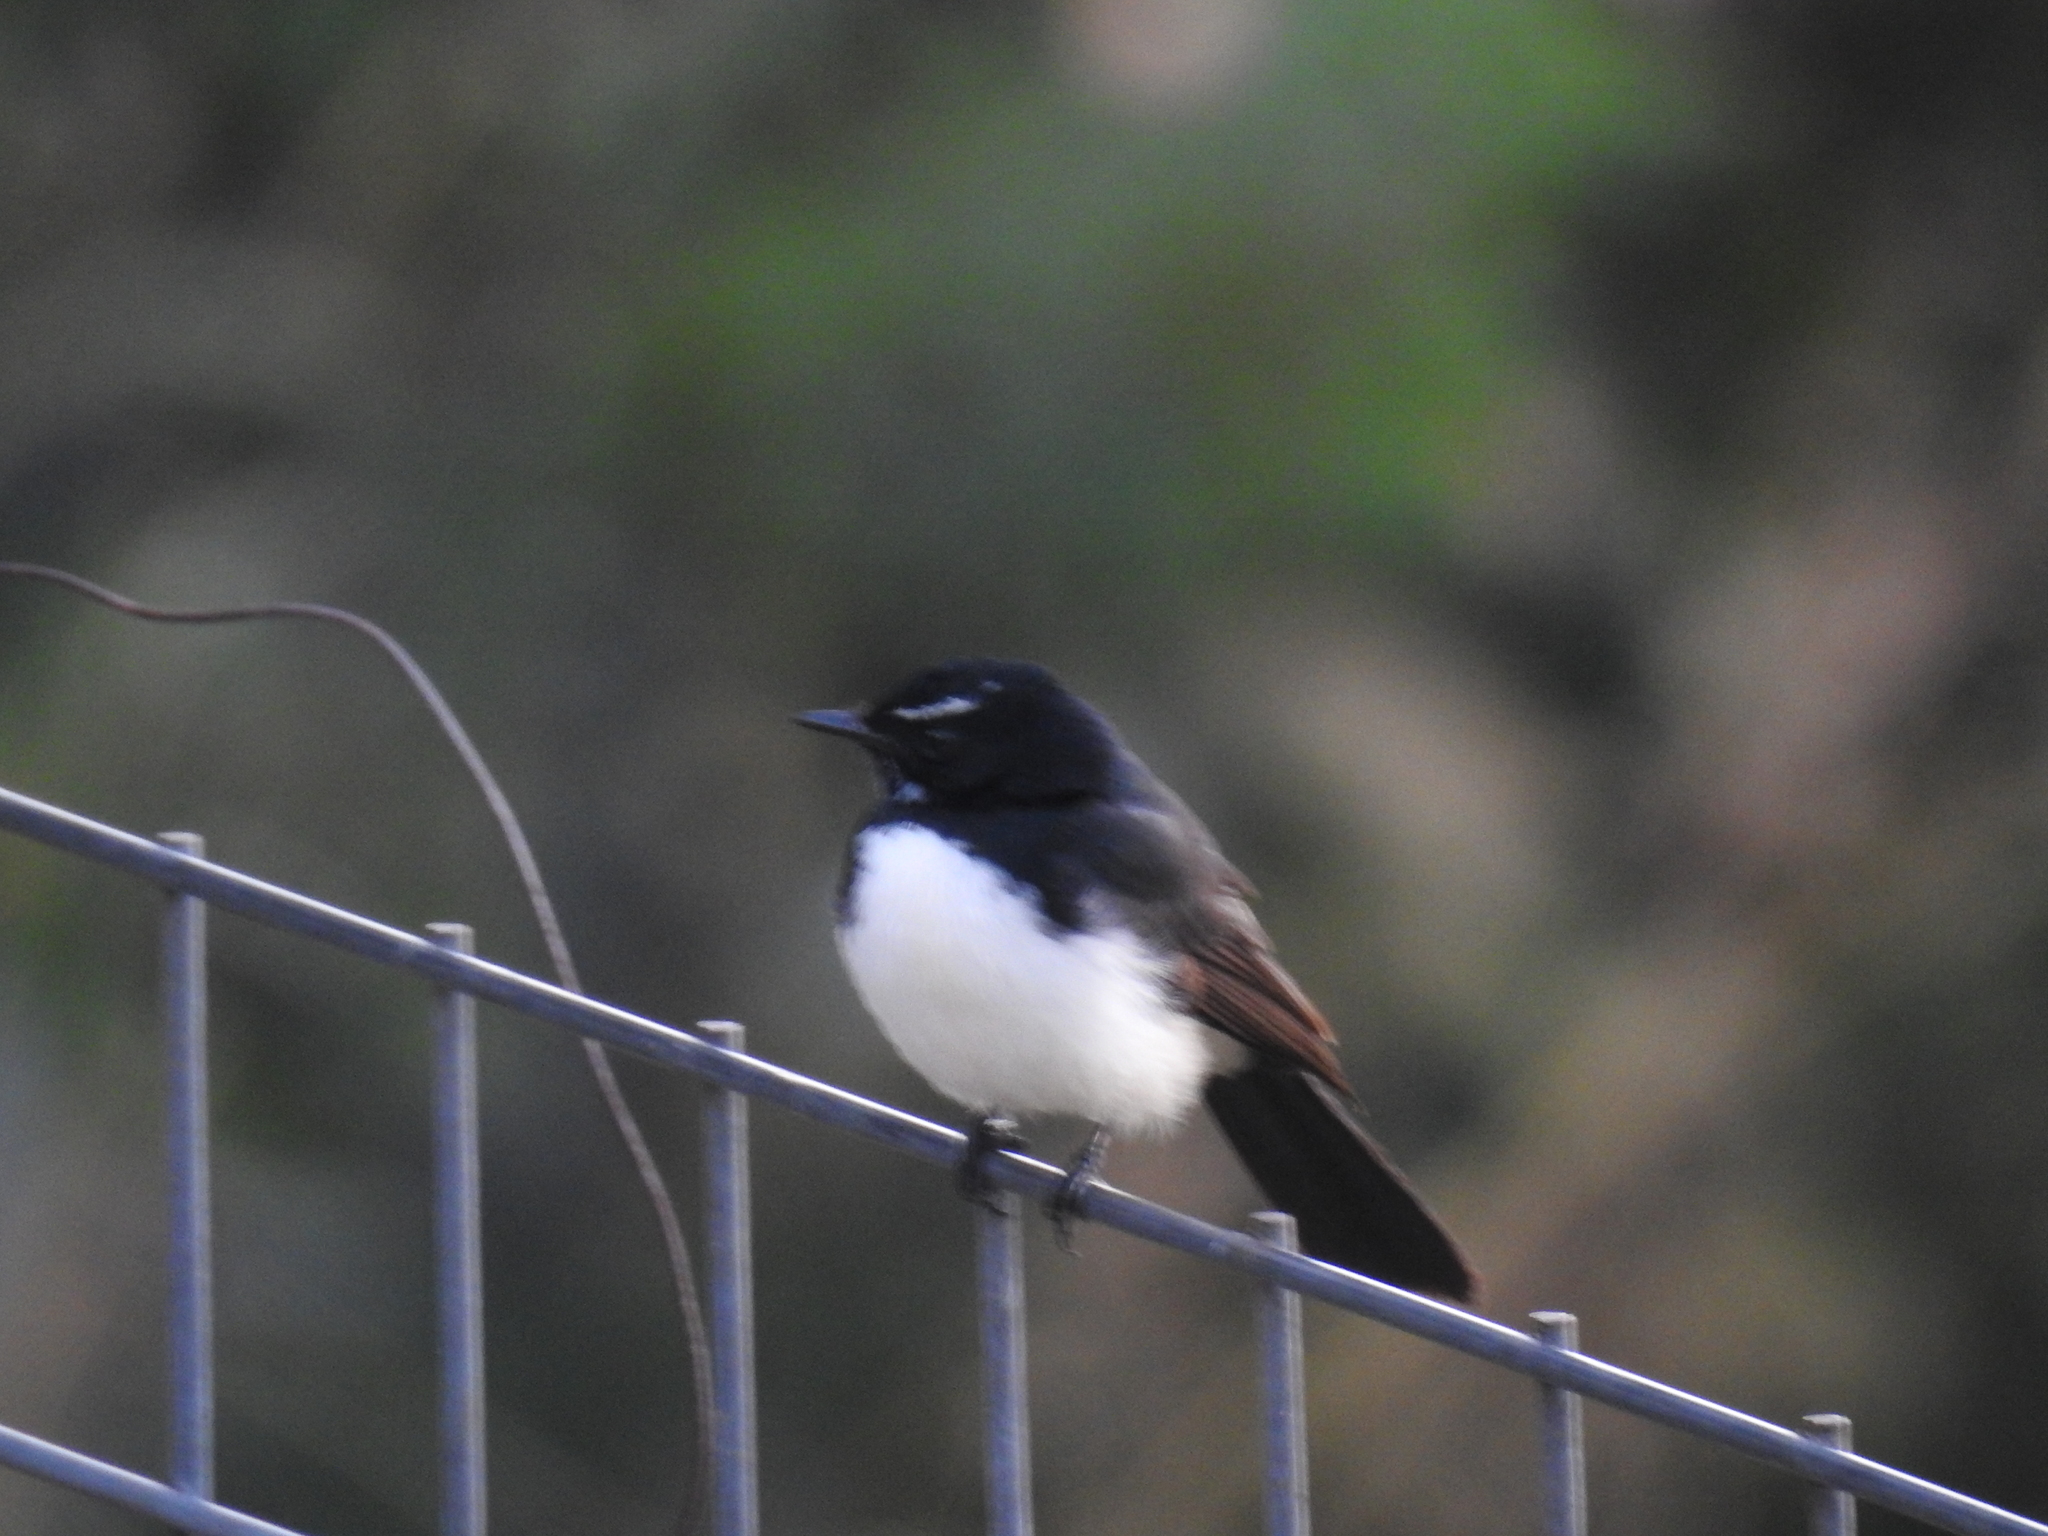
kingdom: Animalia
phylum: Chordata
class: Aves
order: Passeriformes
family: Rhipiduridae
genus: Rhipidura
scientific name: Rhipidura leucophrys
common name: Willie wagtail
